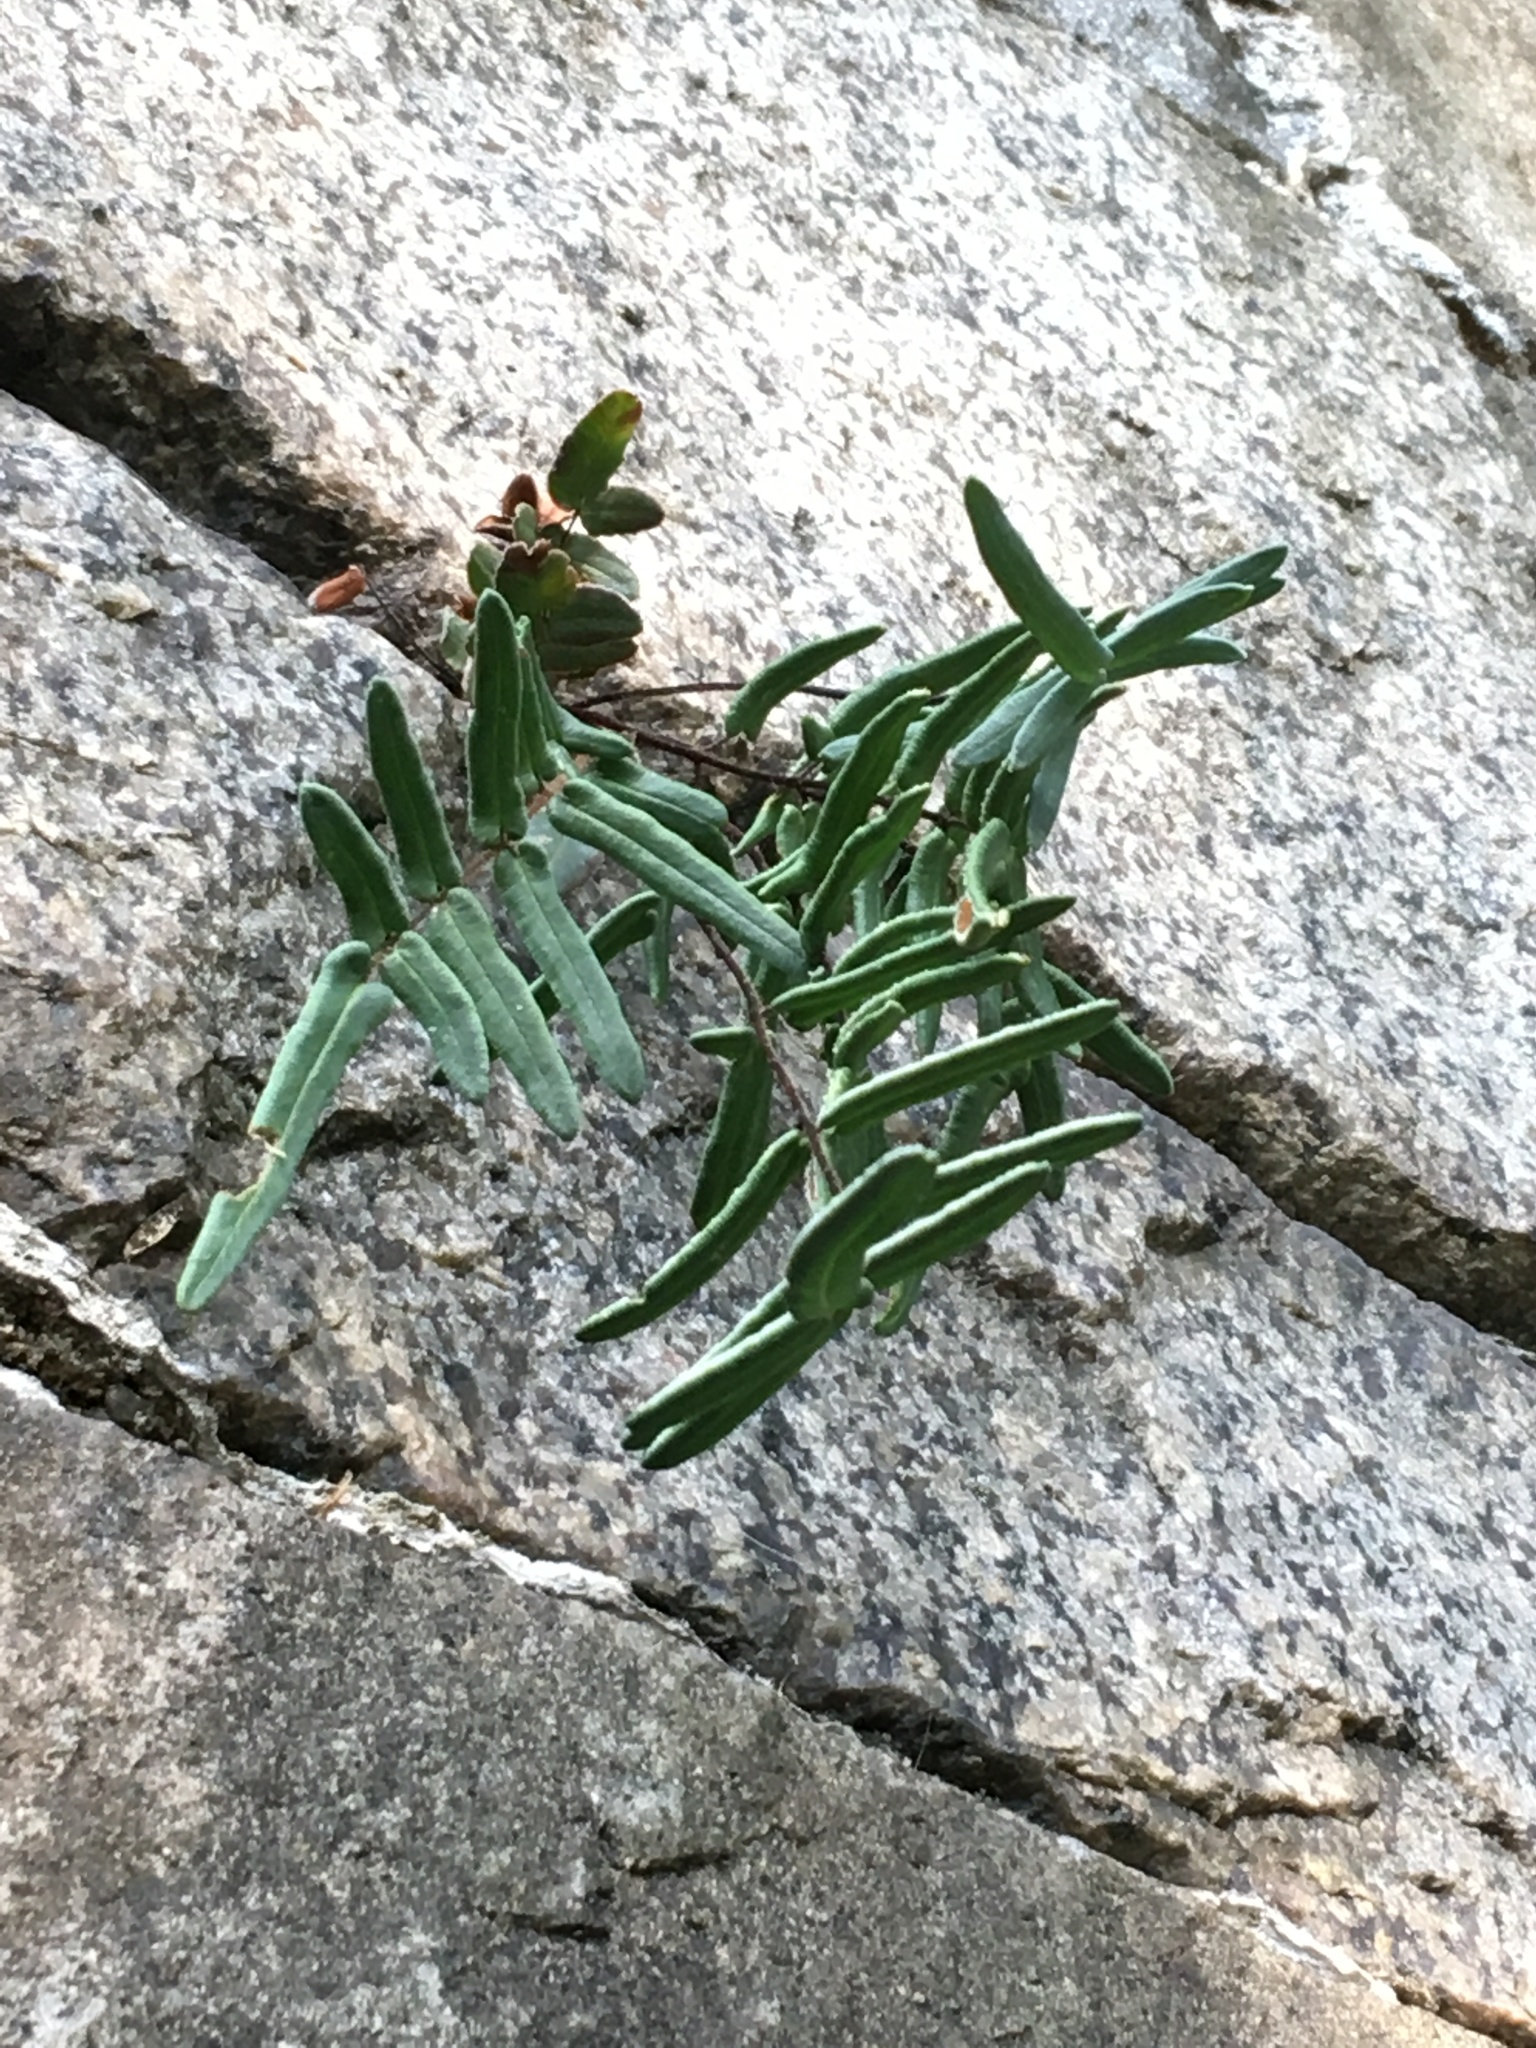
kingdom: Plantae
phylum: Tracheophyta
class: Polypodiopsida
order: Polypodiales
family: Pteridaceae
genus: Pellaea
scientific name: Pellaea atropurpurea
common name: Hairy cliffbrake
